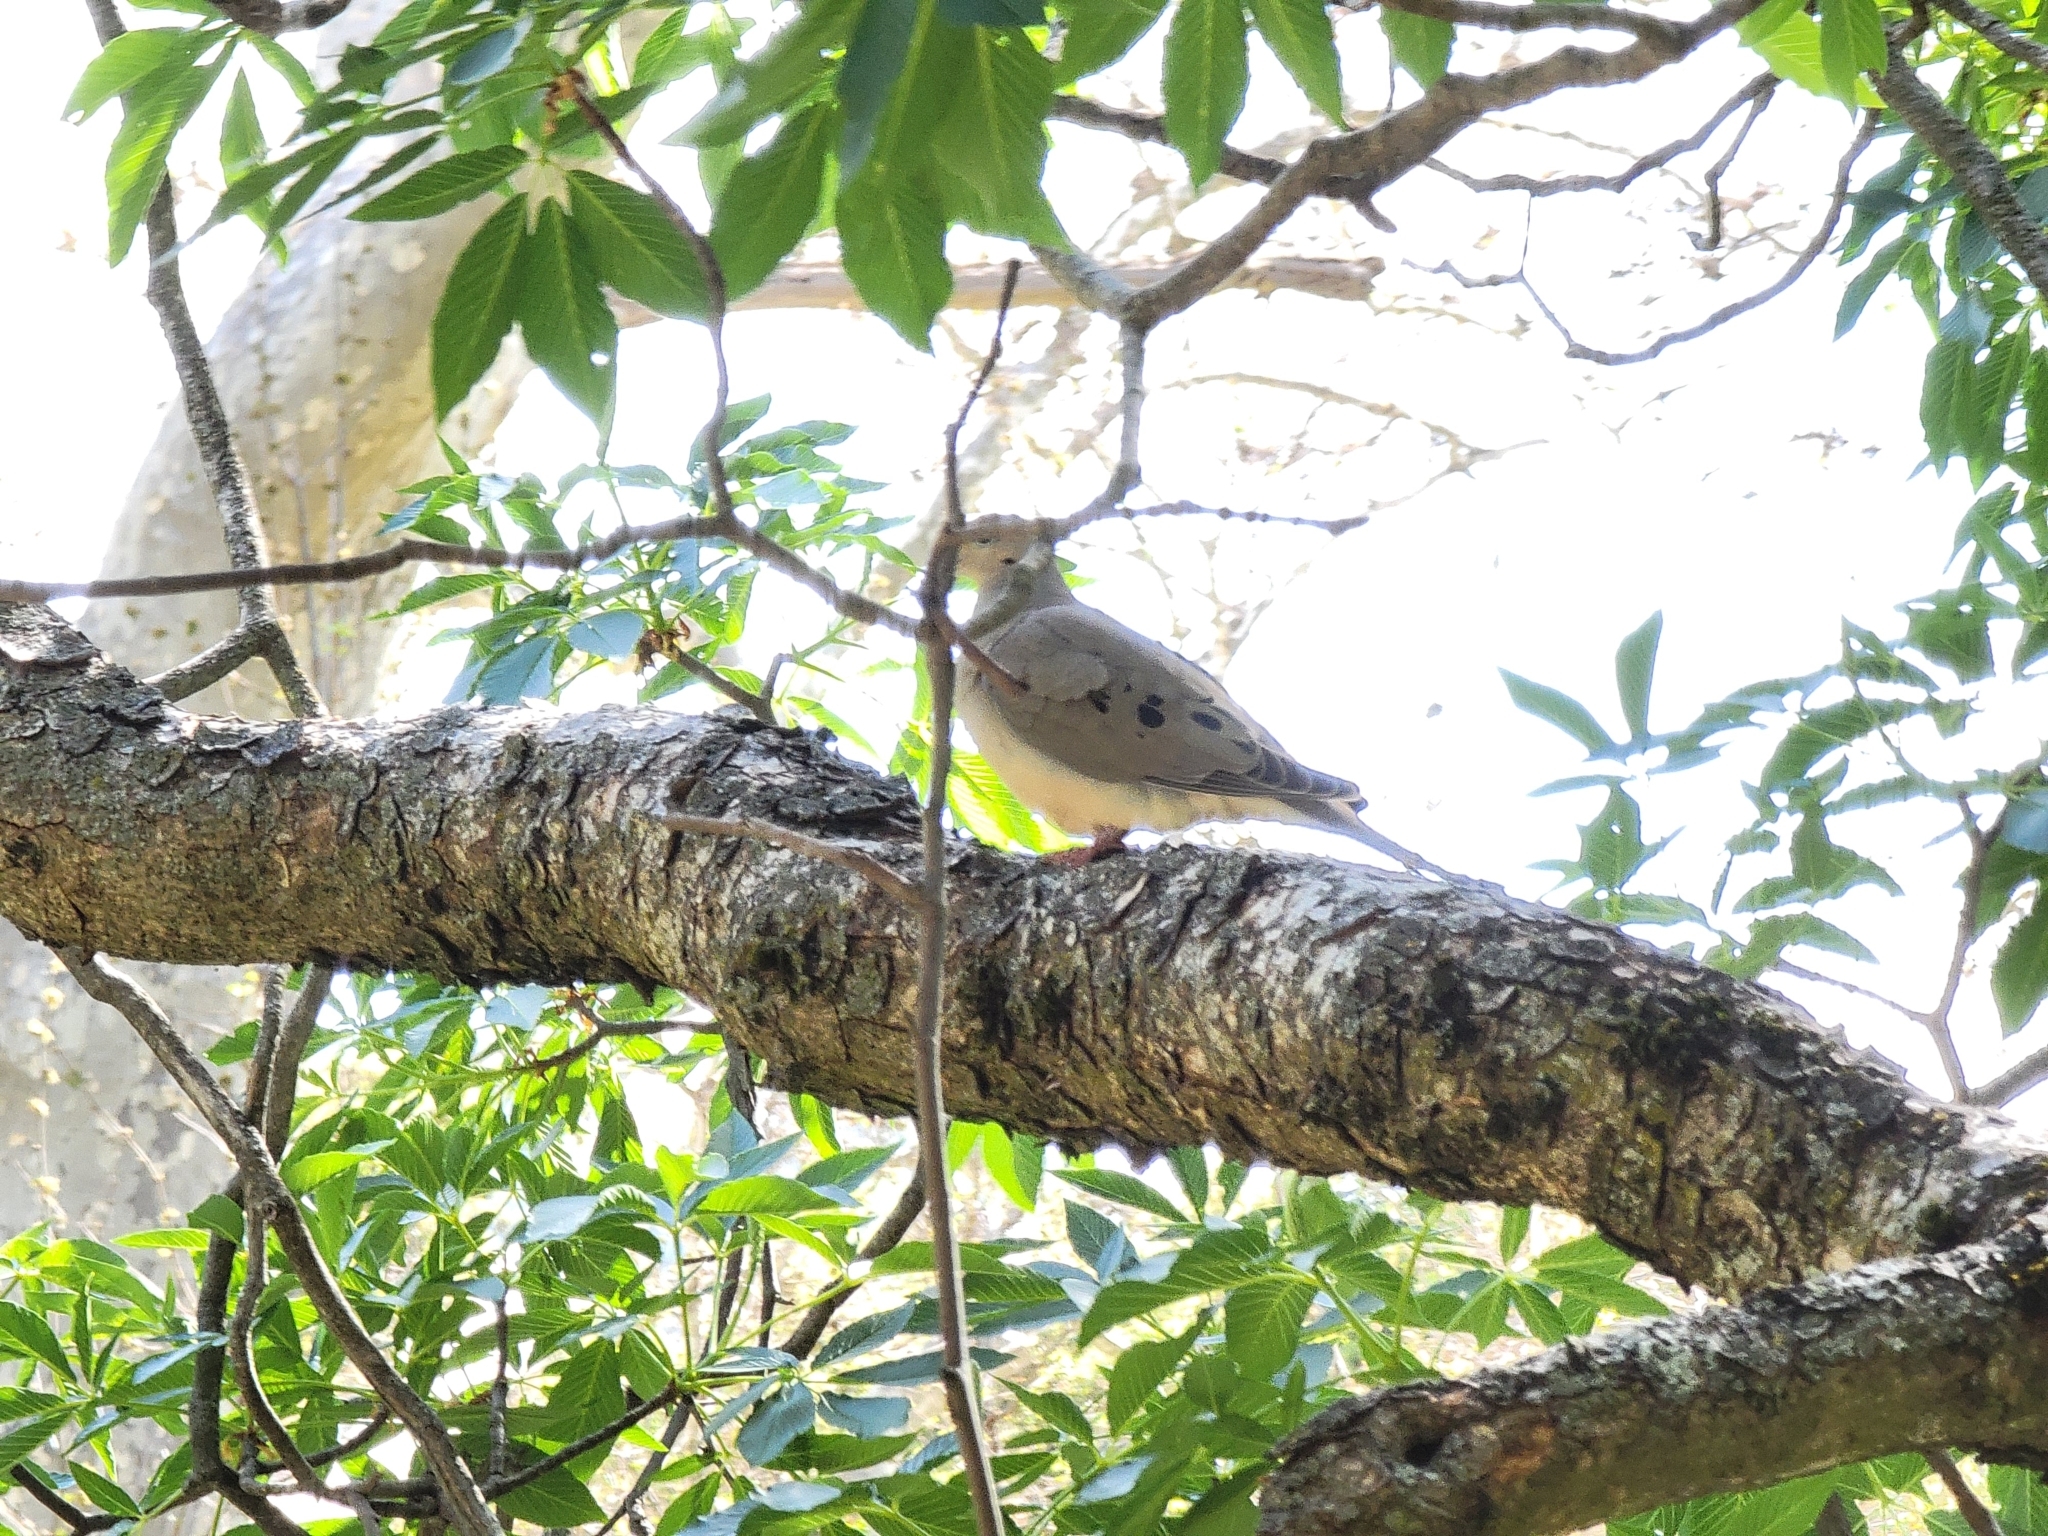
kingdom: Animalia
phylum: Chordata
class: Aves
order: Columbiformes
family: Columbidae
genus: Zenaida
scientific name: Zenaida macroura
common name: Mourning dove
